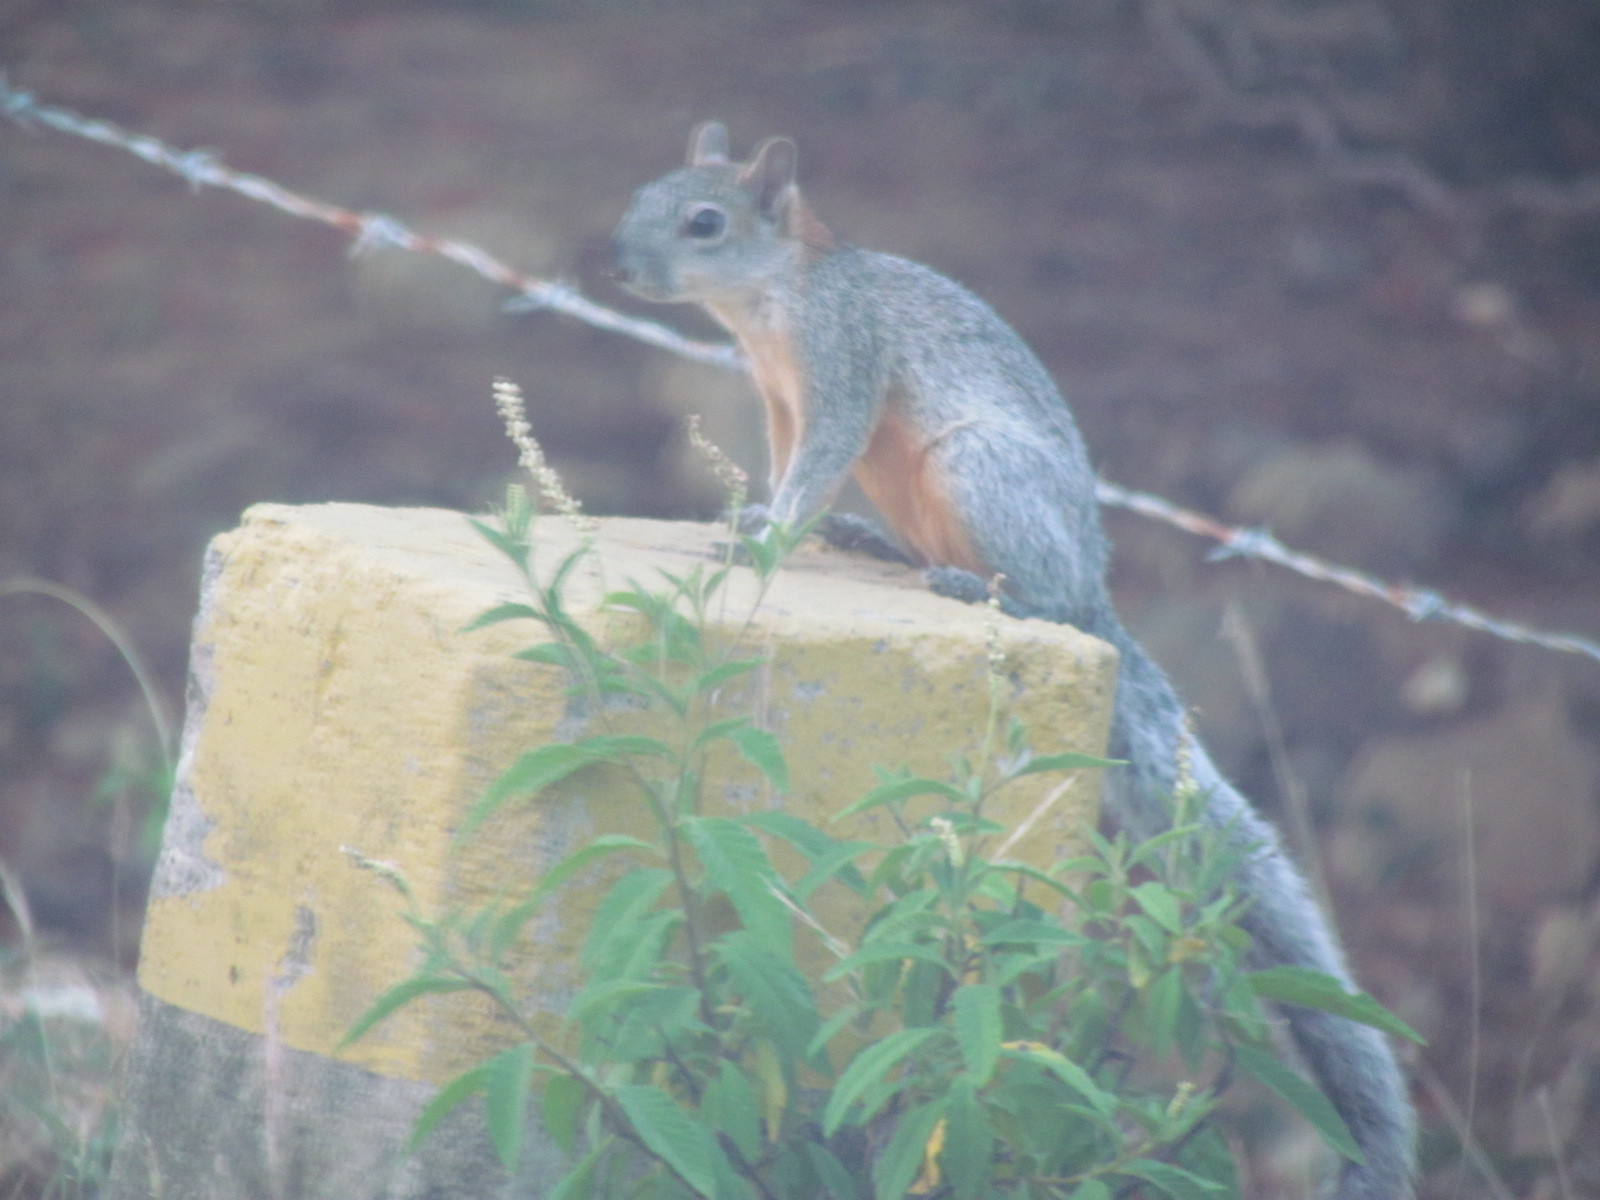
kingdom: Animalia
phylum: Chordata
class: Mammalia
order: Rodentia
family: Sciuridae
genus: Sciurus
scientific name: Sciurus aureogaster
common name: Red-bellied squirrel
